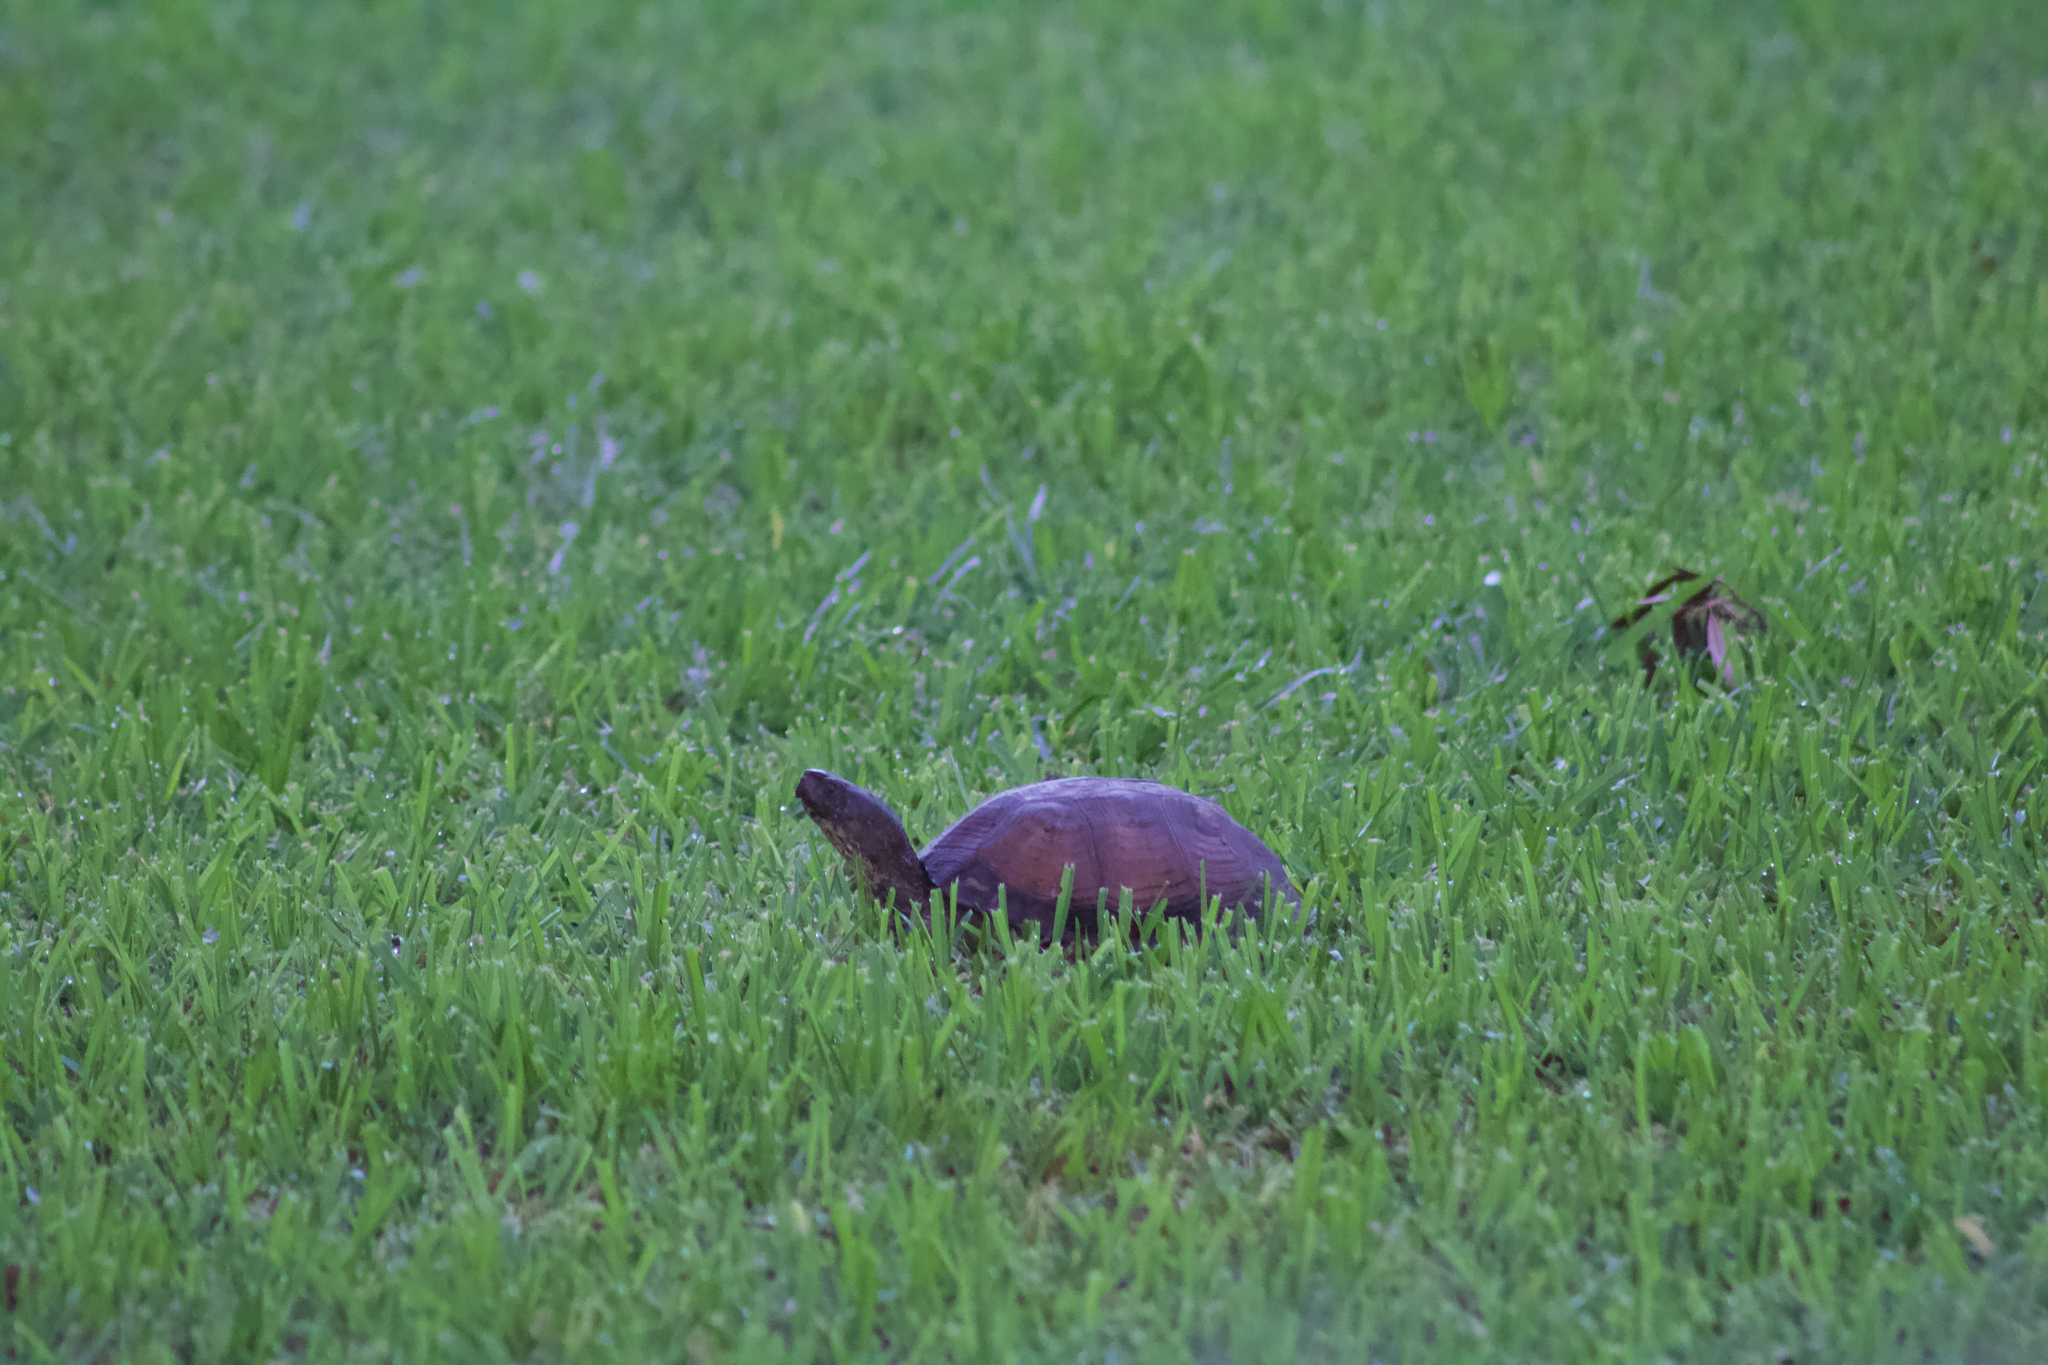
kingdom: Animalia
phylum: Chordata
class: Testudines
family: Emydidae
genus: Terrapene
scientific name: Terrapene carolina
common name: Common box turtle
